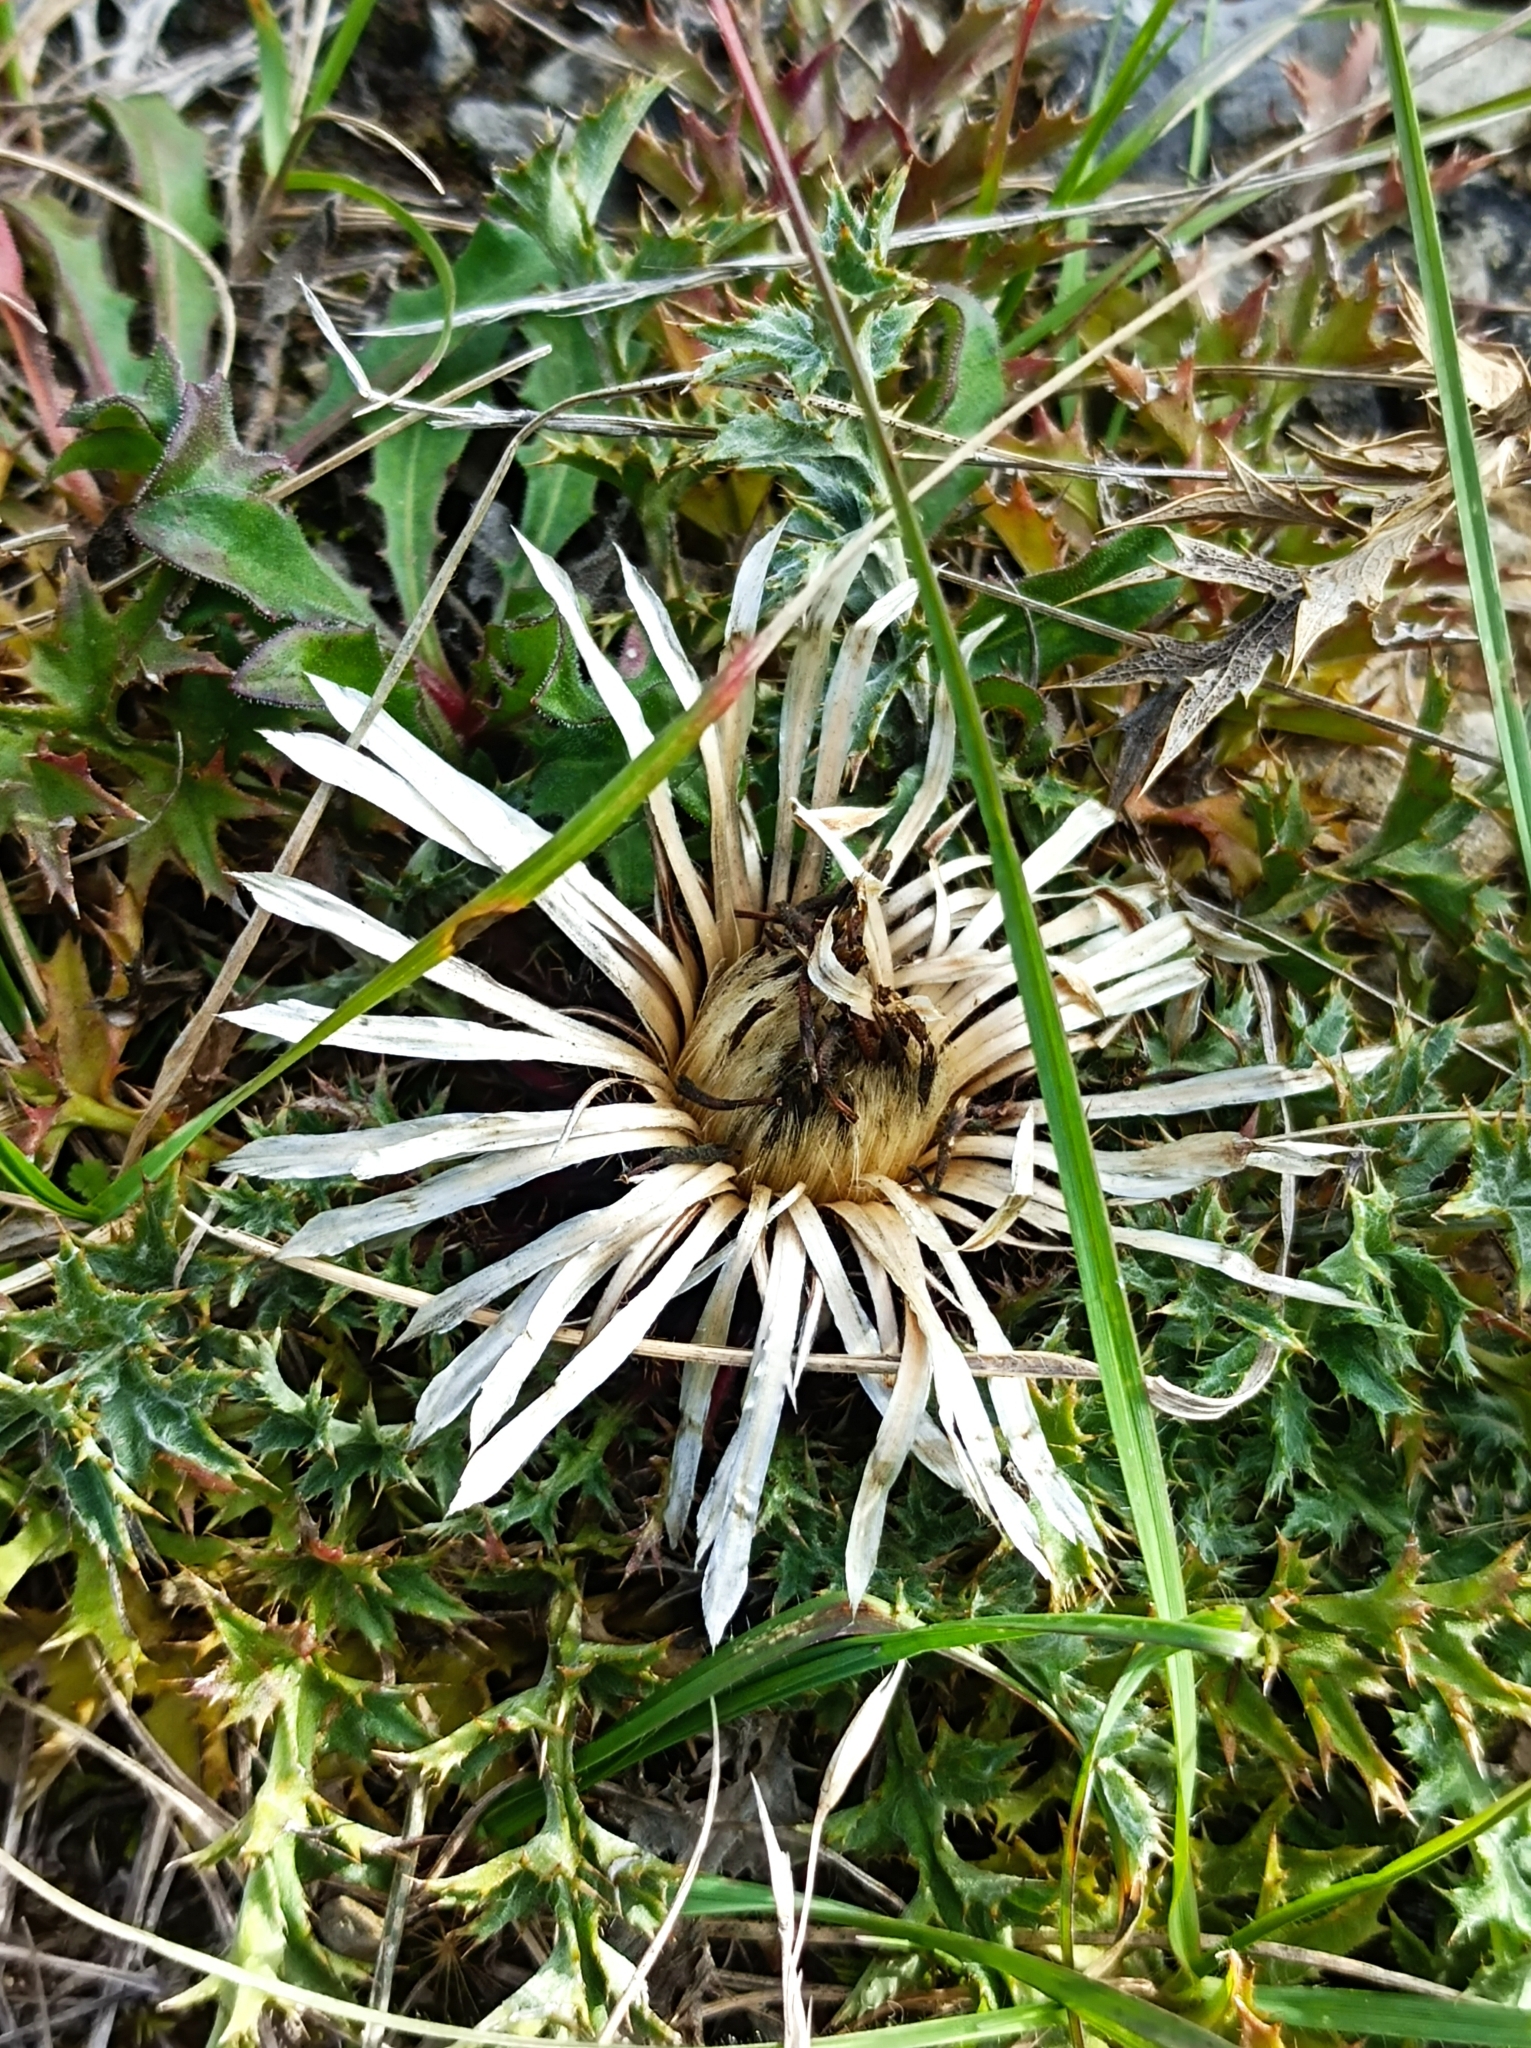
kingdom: Plantae
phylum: Tracheophyta
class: Magnoliopsida
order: Asterales
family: Asteraceae
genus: Carlina
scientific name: Carlina acaulis
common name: Stemless carline thistle
